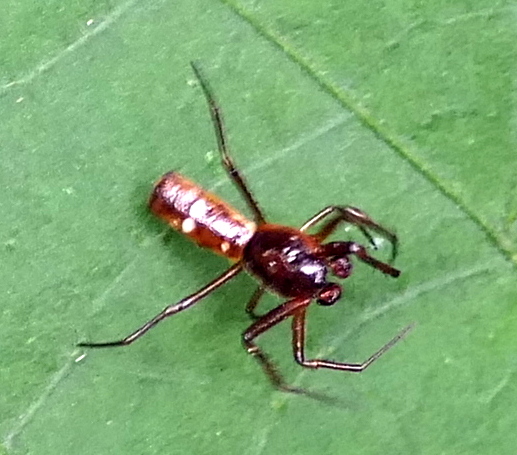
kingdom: Animalia
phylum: Arthropoda
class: Arachnida
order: Araneae
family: Araneidae
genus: Micrathena
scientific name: Micrathena fissispina
